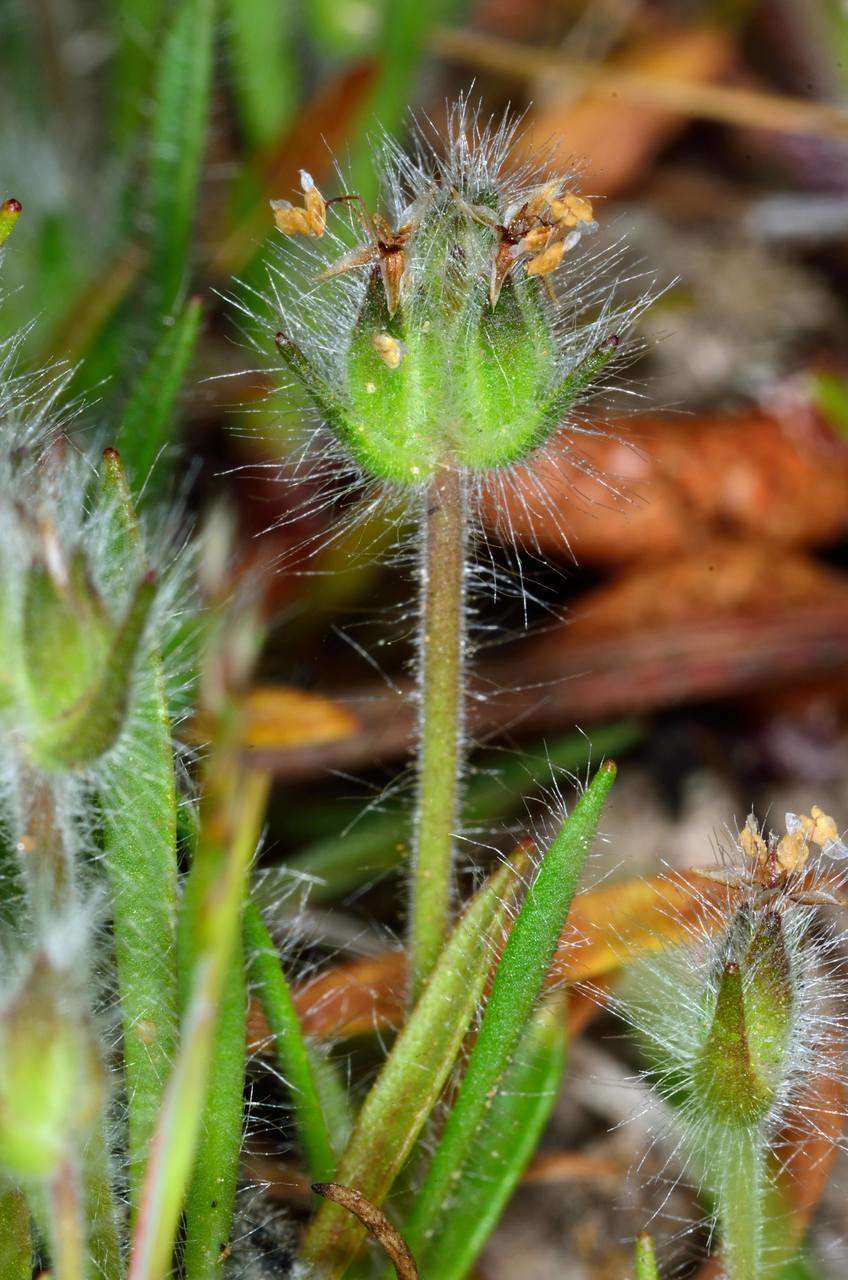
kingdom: Plantae
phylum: Tracheophyta
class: Magnoliopsida
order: Lamiales
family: Plantaginaceae
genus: Plantago
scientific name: Plantago bellardii
